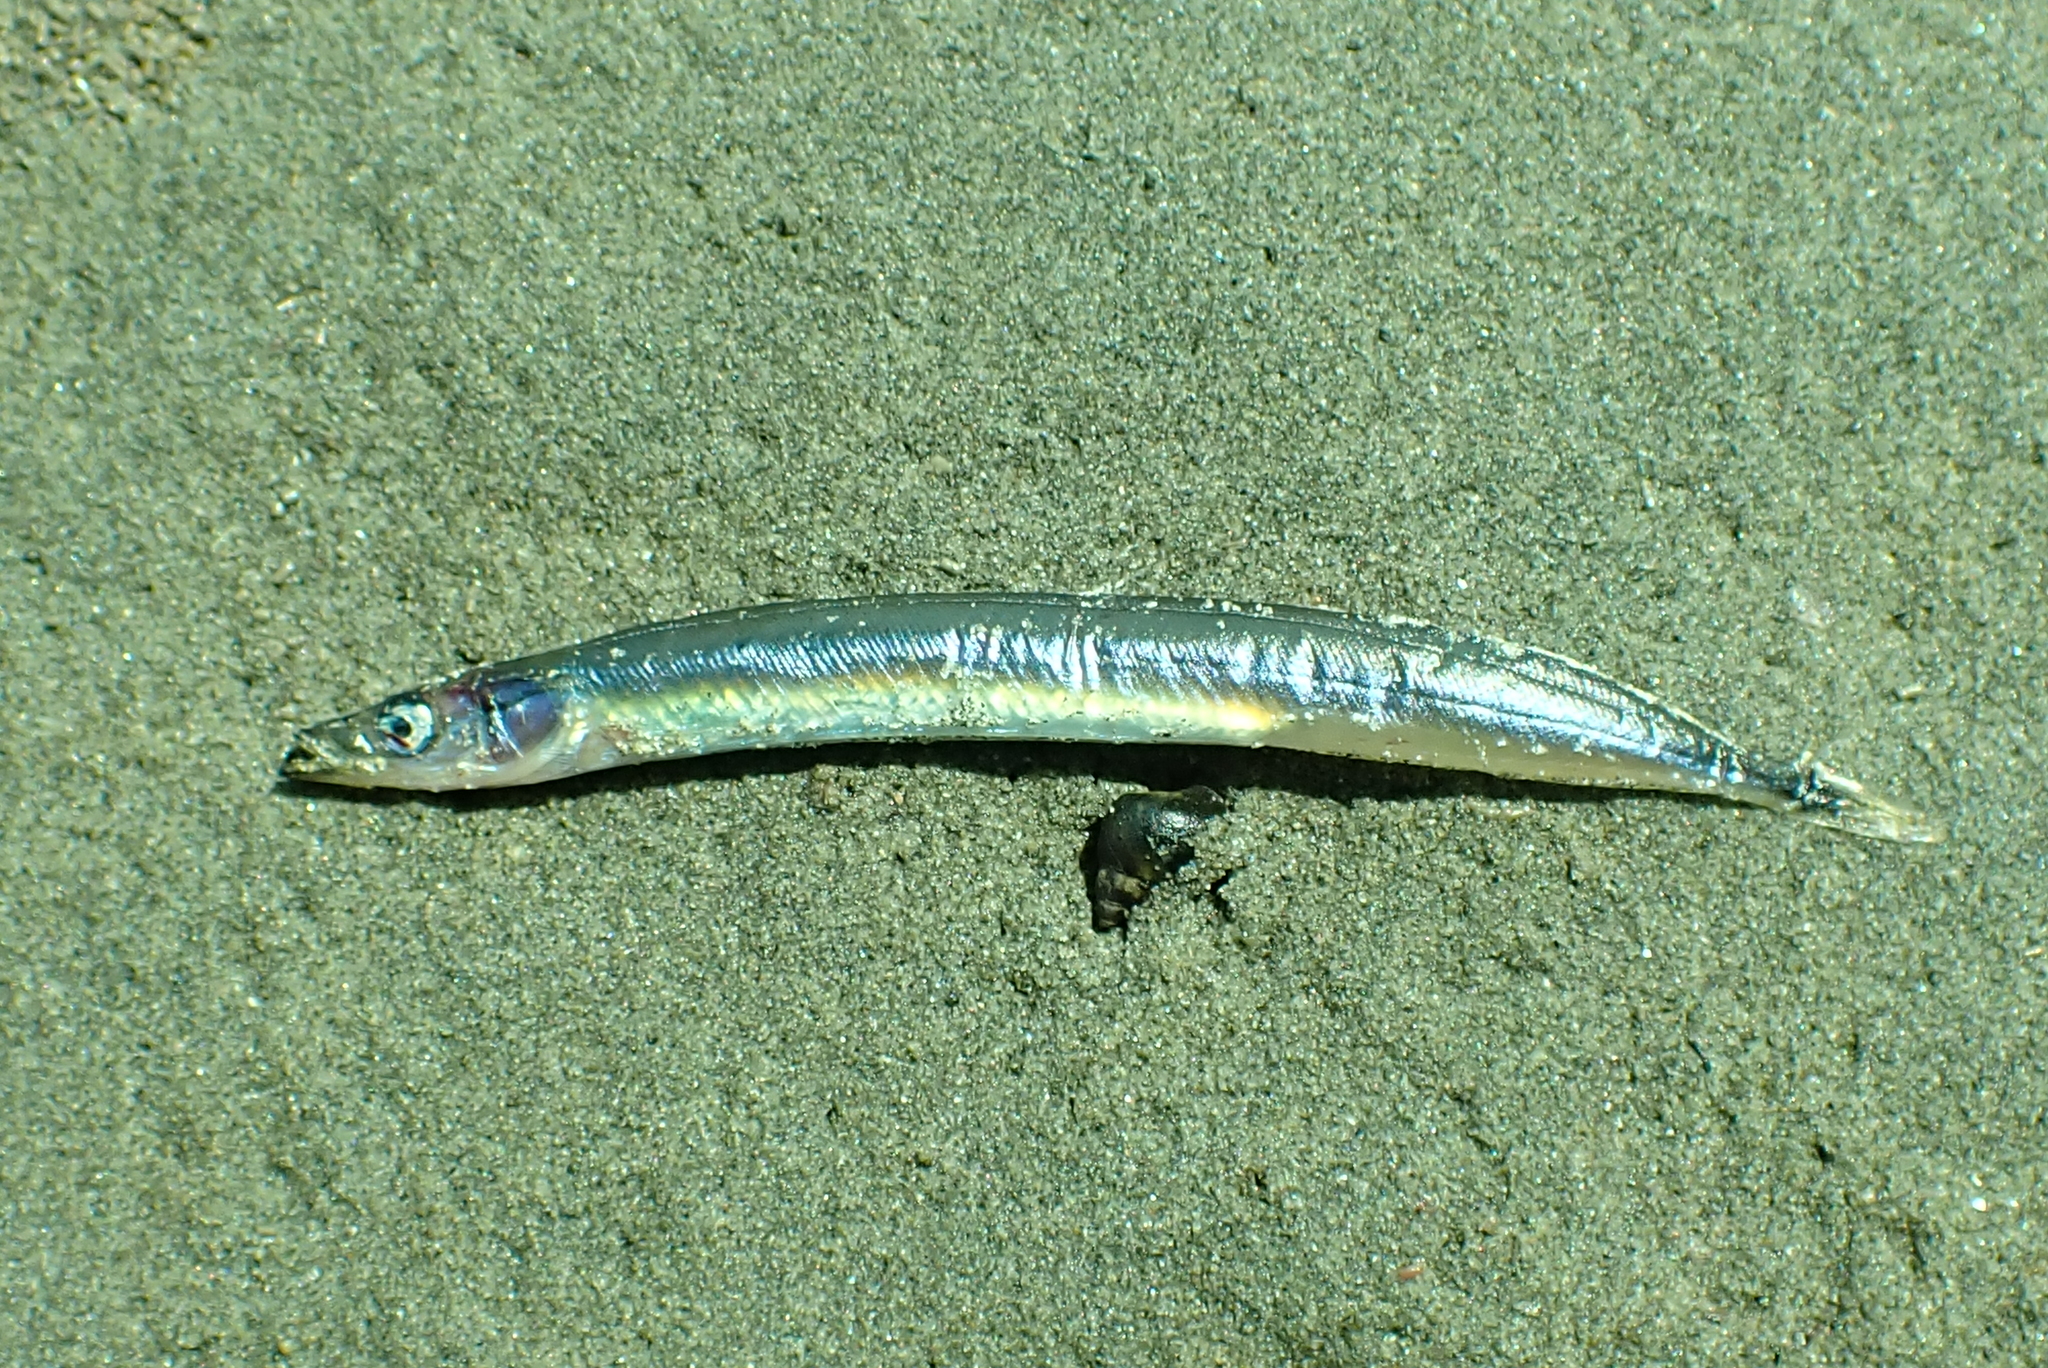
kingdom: Animalia
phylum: Chordata
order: Perciformes
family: Ammodytidae
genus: Ammodytes
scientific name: Ammodytes personatus
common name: Japanese sand lance
